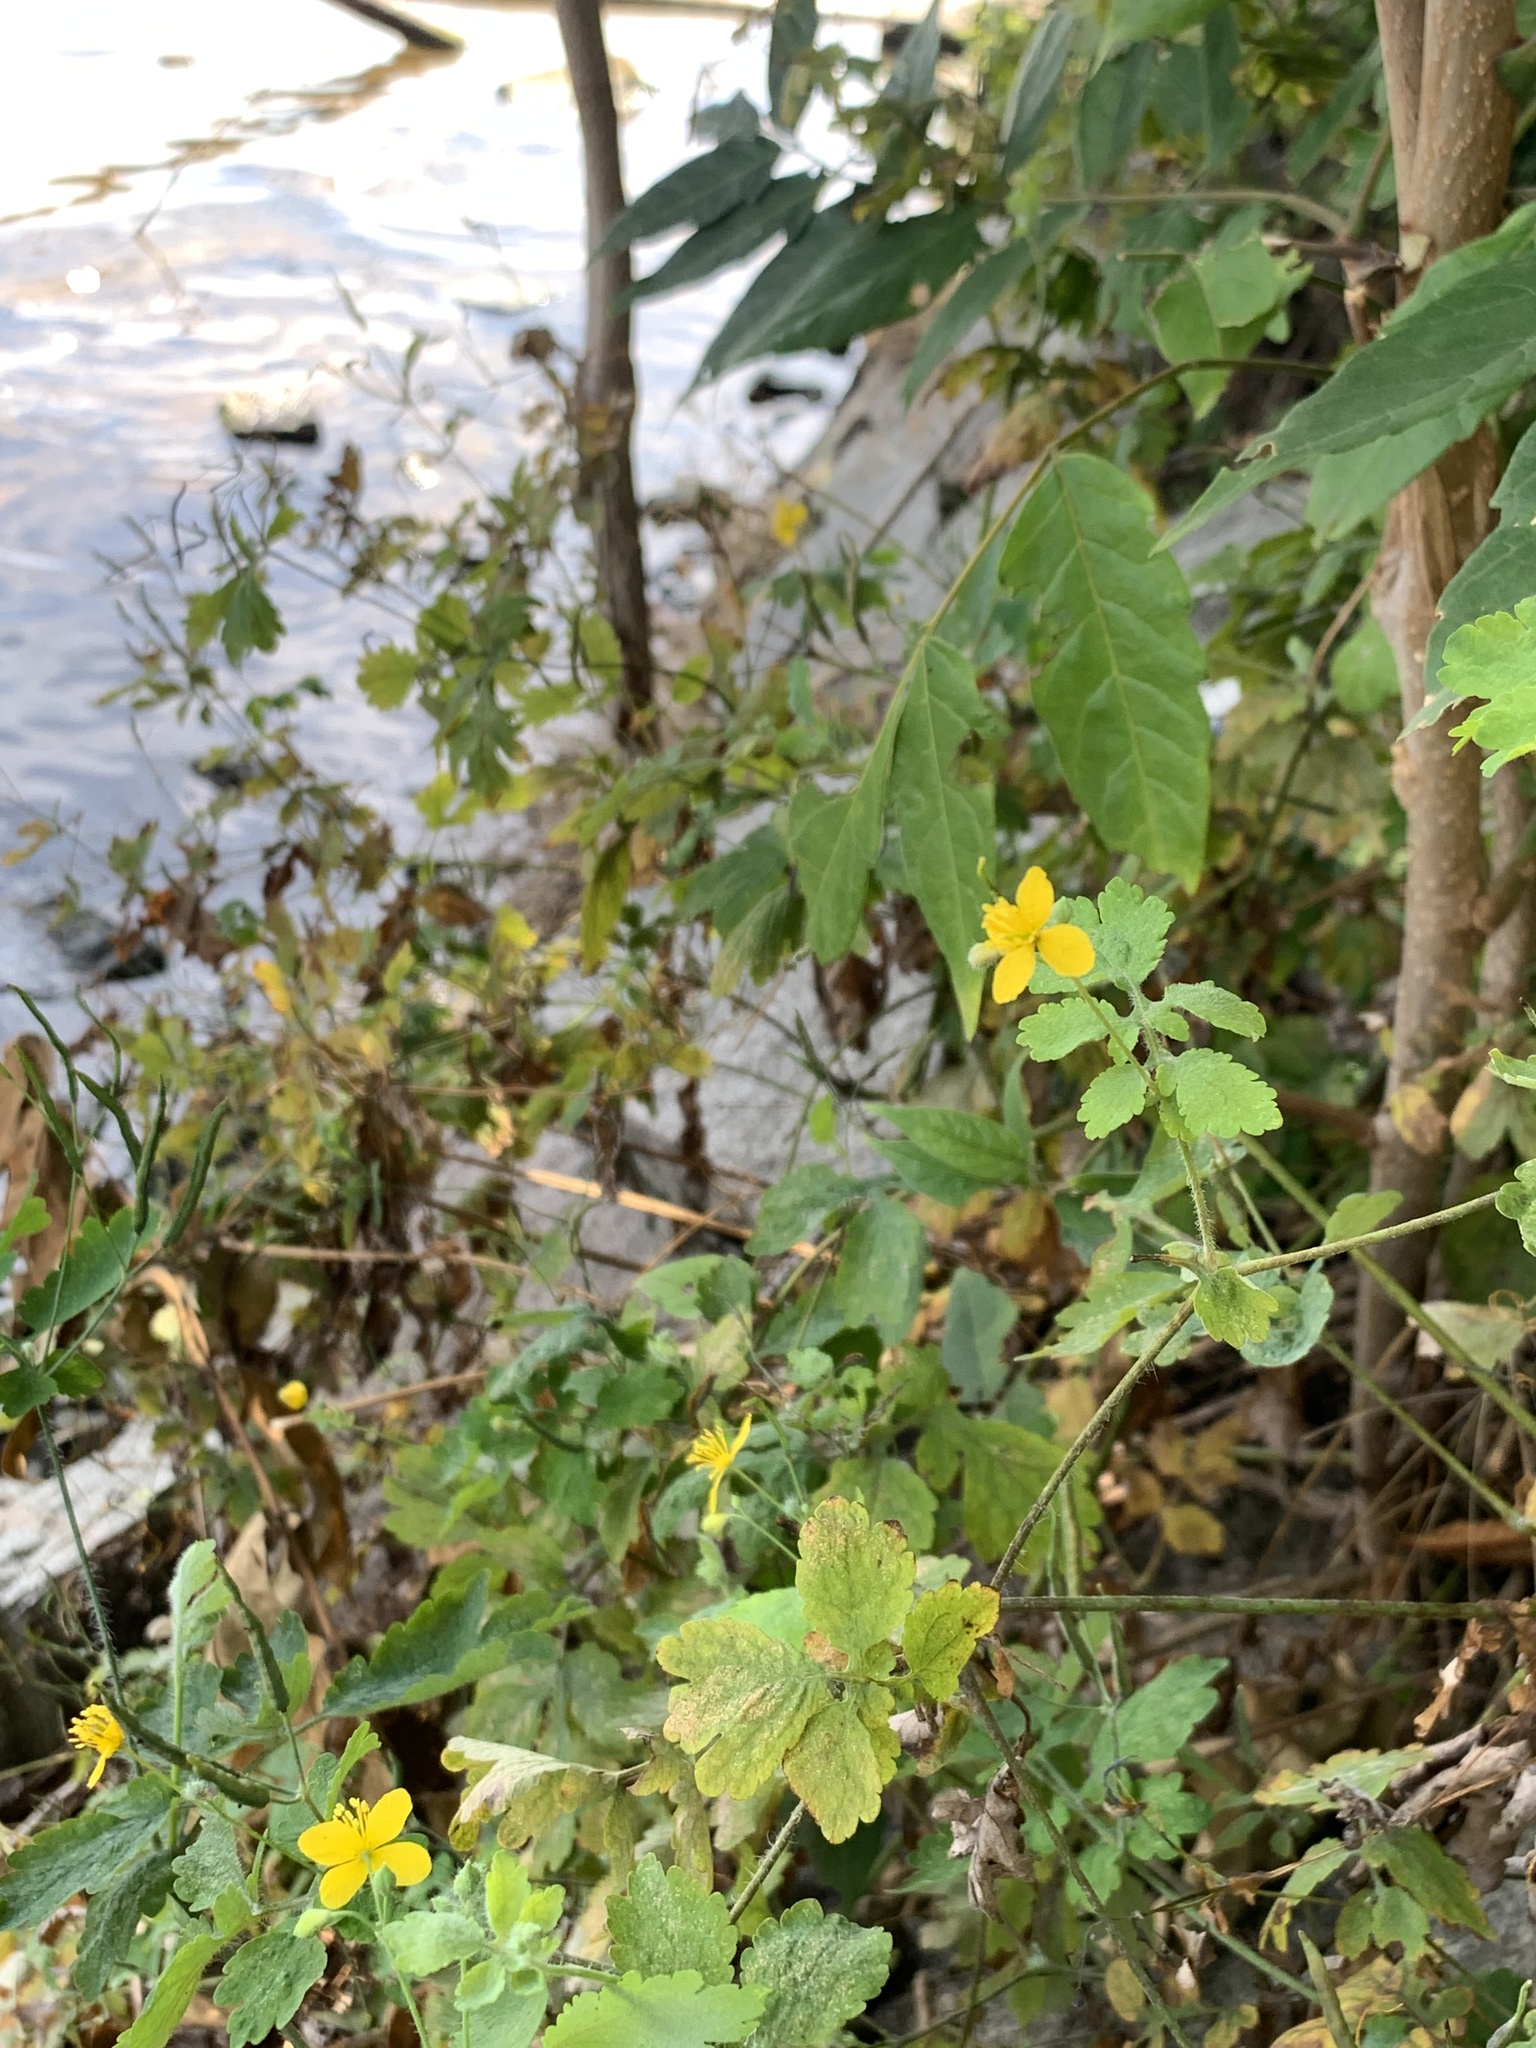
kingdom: Plantae
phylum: Tracheophyta
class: Magnoliopsida
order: Ranunculales
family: Papaveraceae
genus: Chelidonium
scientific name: Chelidonium majus
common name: Greater celandine
